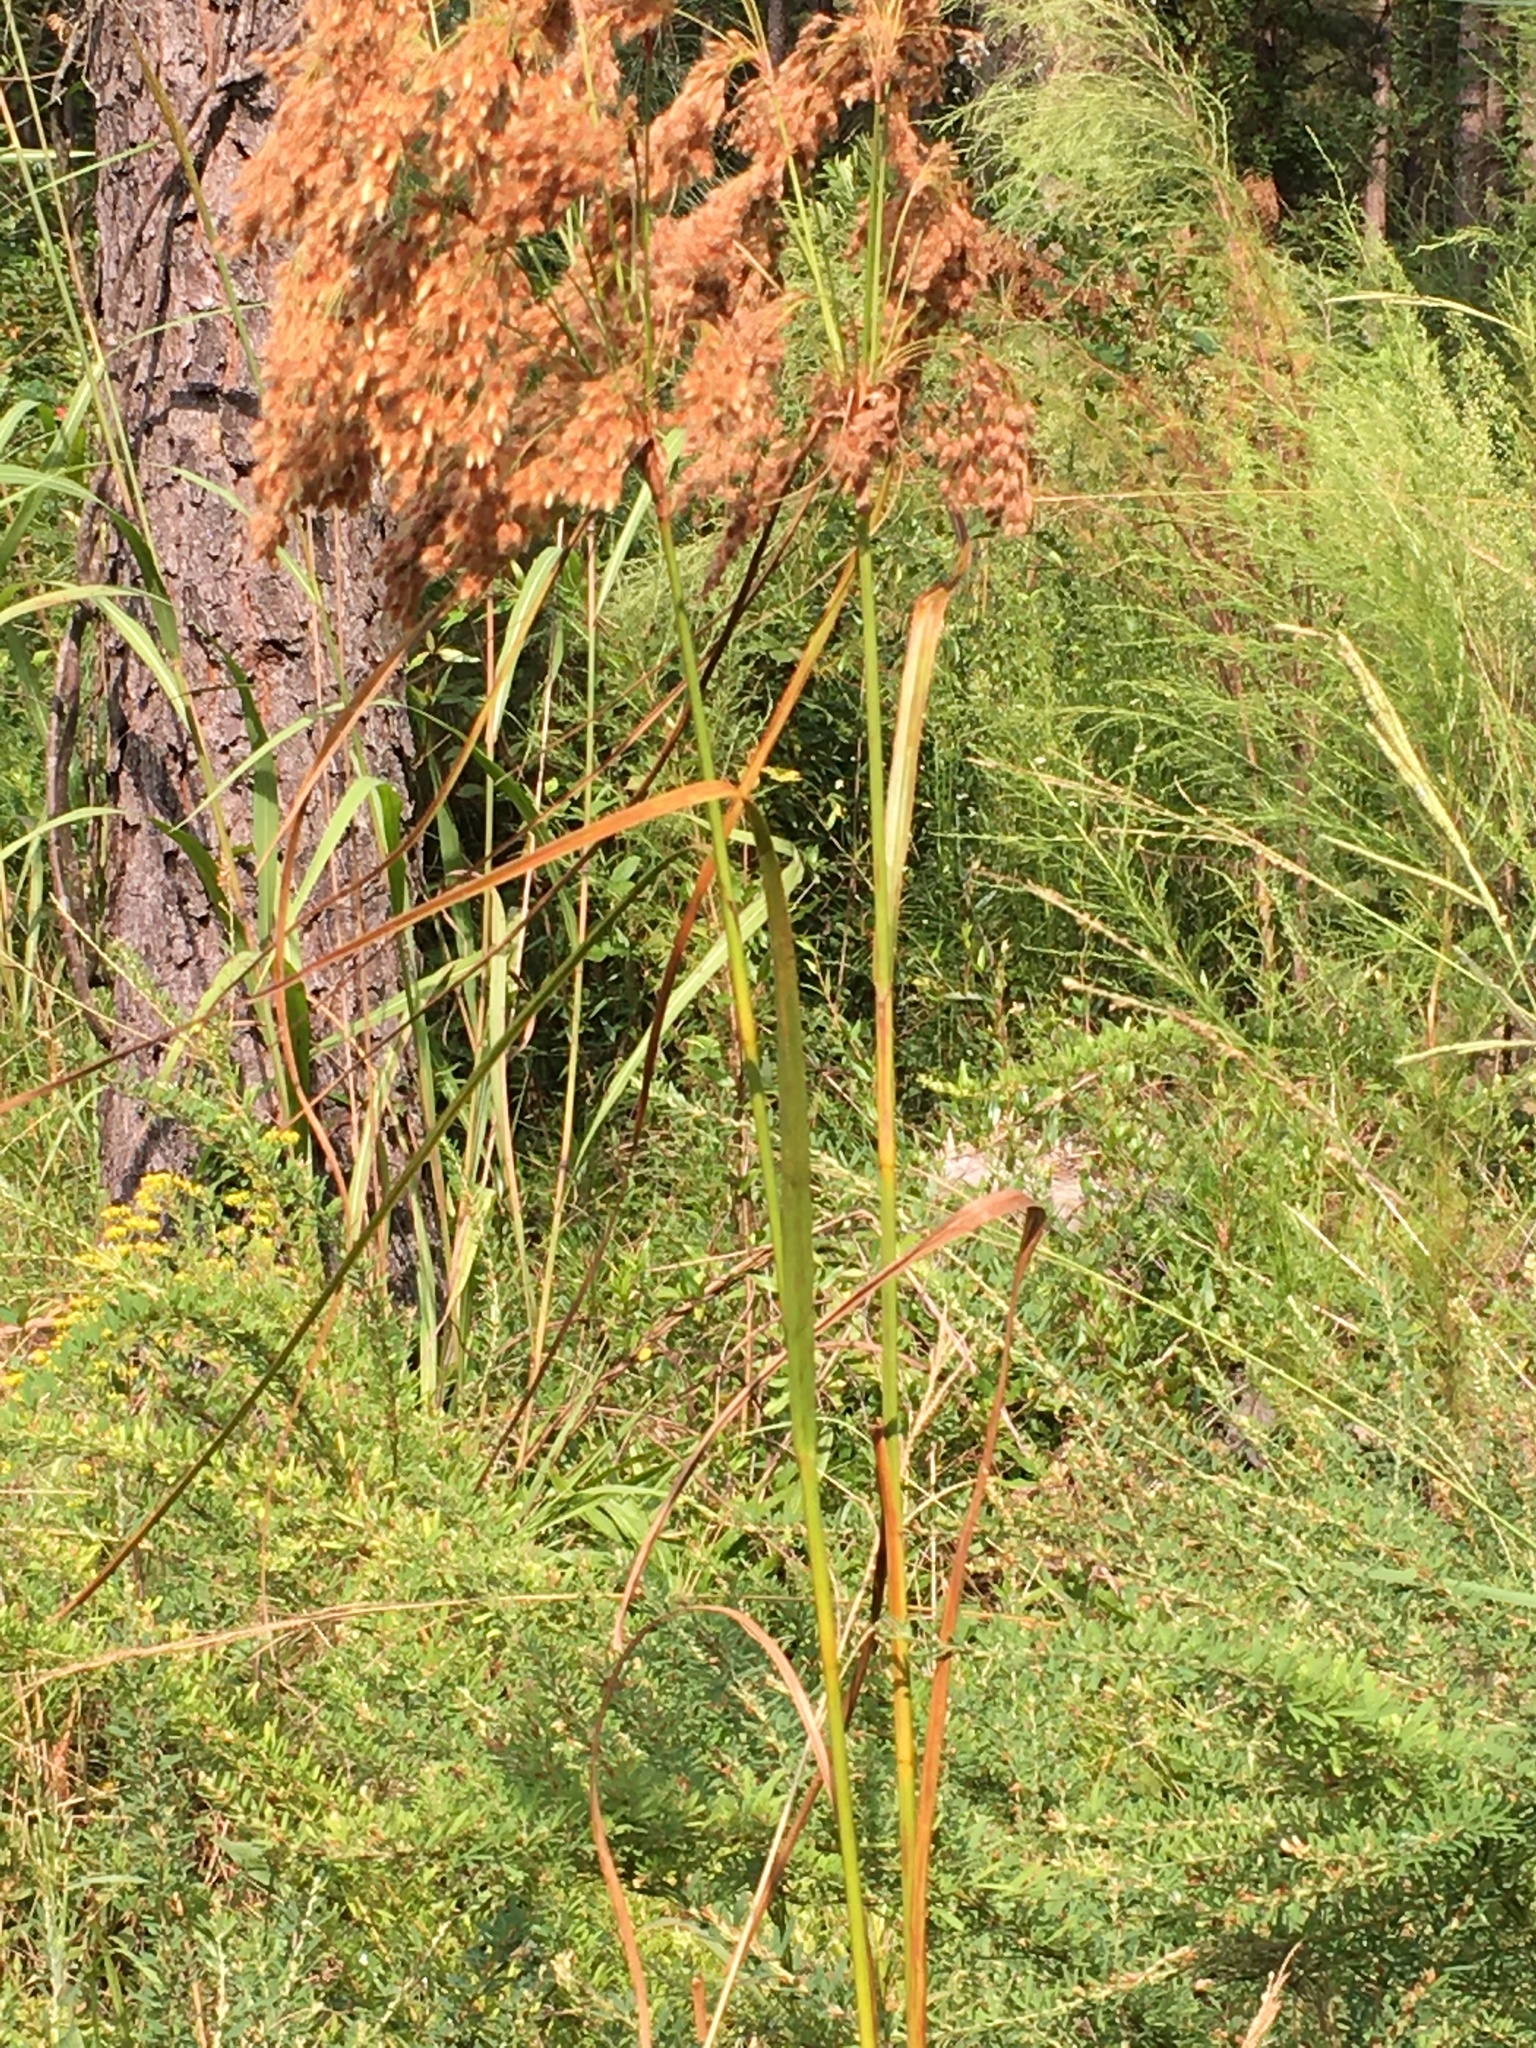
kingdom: Plantae
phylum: Tracheophyta
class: Liliopsida
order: Poales
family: Cyperaceae
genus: Scirpus
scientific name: Scirpus cyperinus
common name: Black-sheathed bulrush
